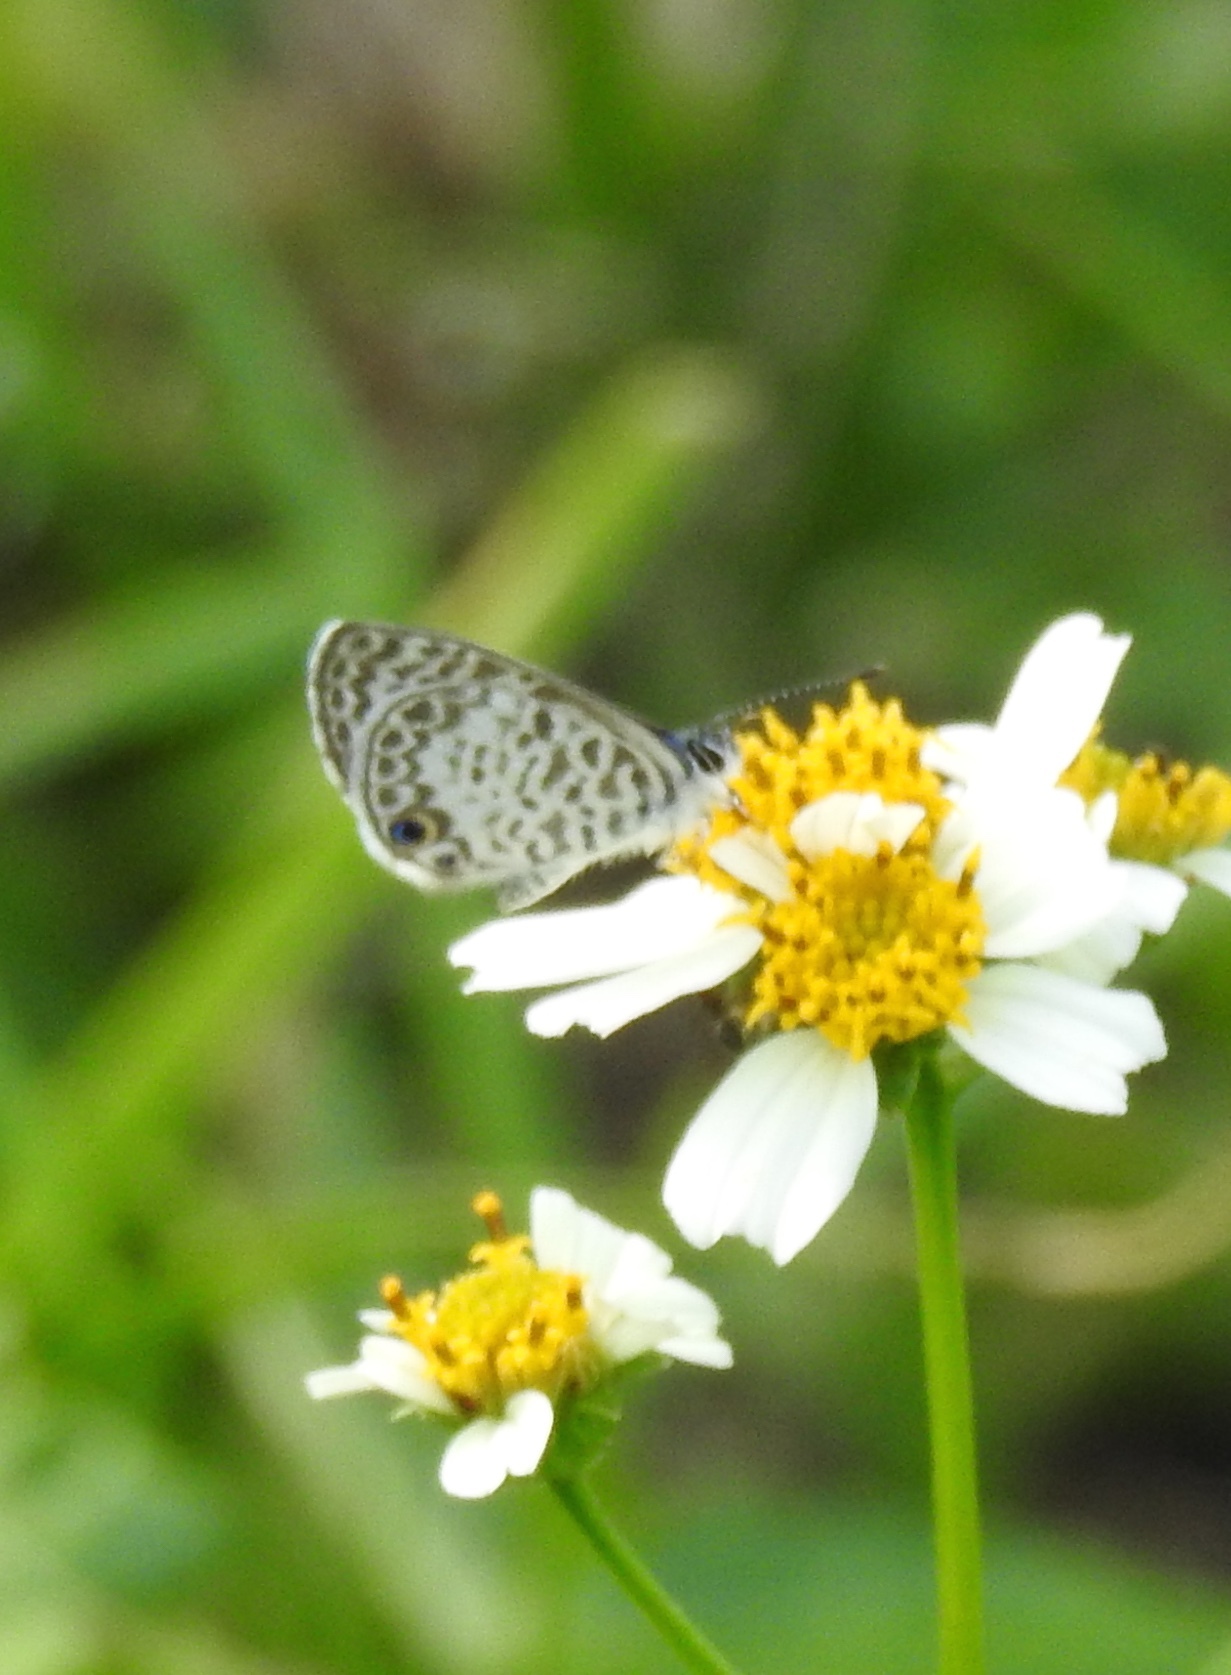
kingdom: Animalia
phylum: Arthropoda
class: Insecta
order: Lepidoptera
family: Lycaenidae
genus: Leptotes
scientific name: Leptotes cassius
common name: Cassius blue
